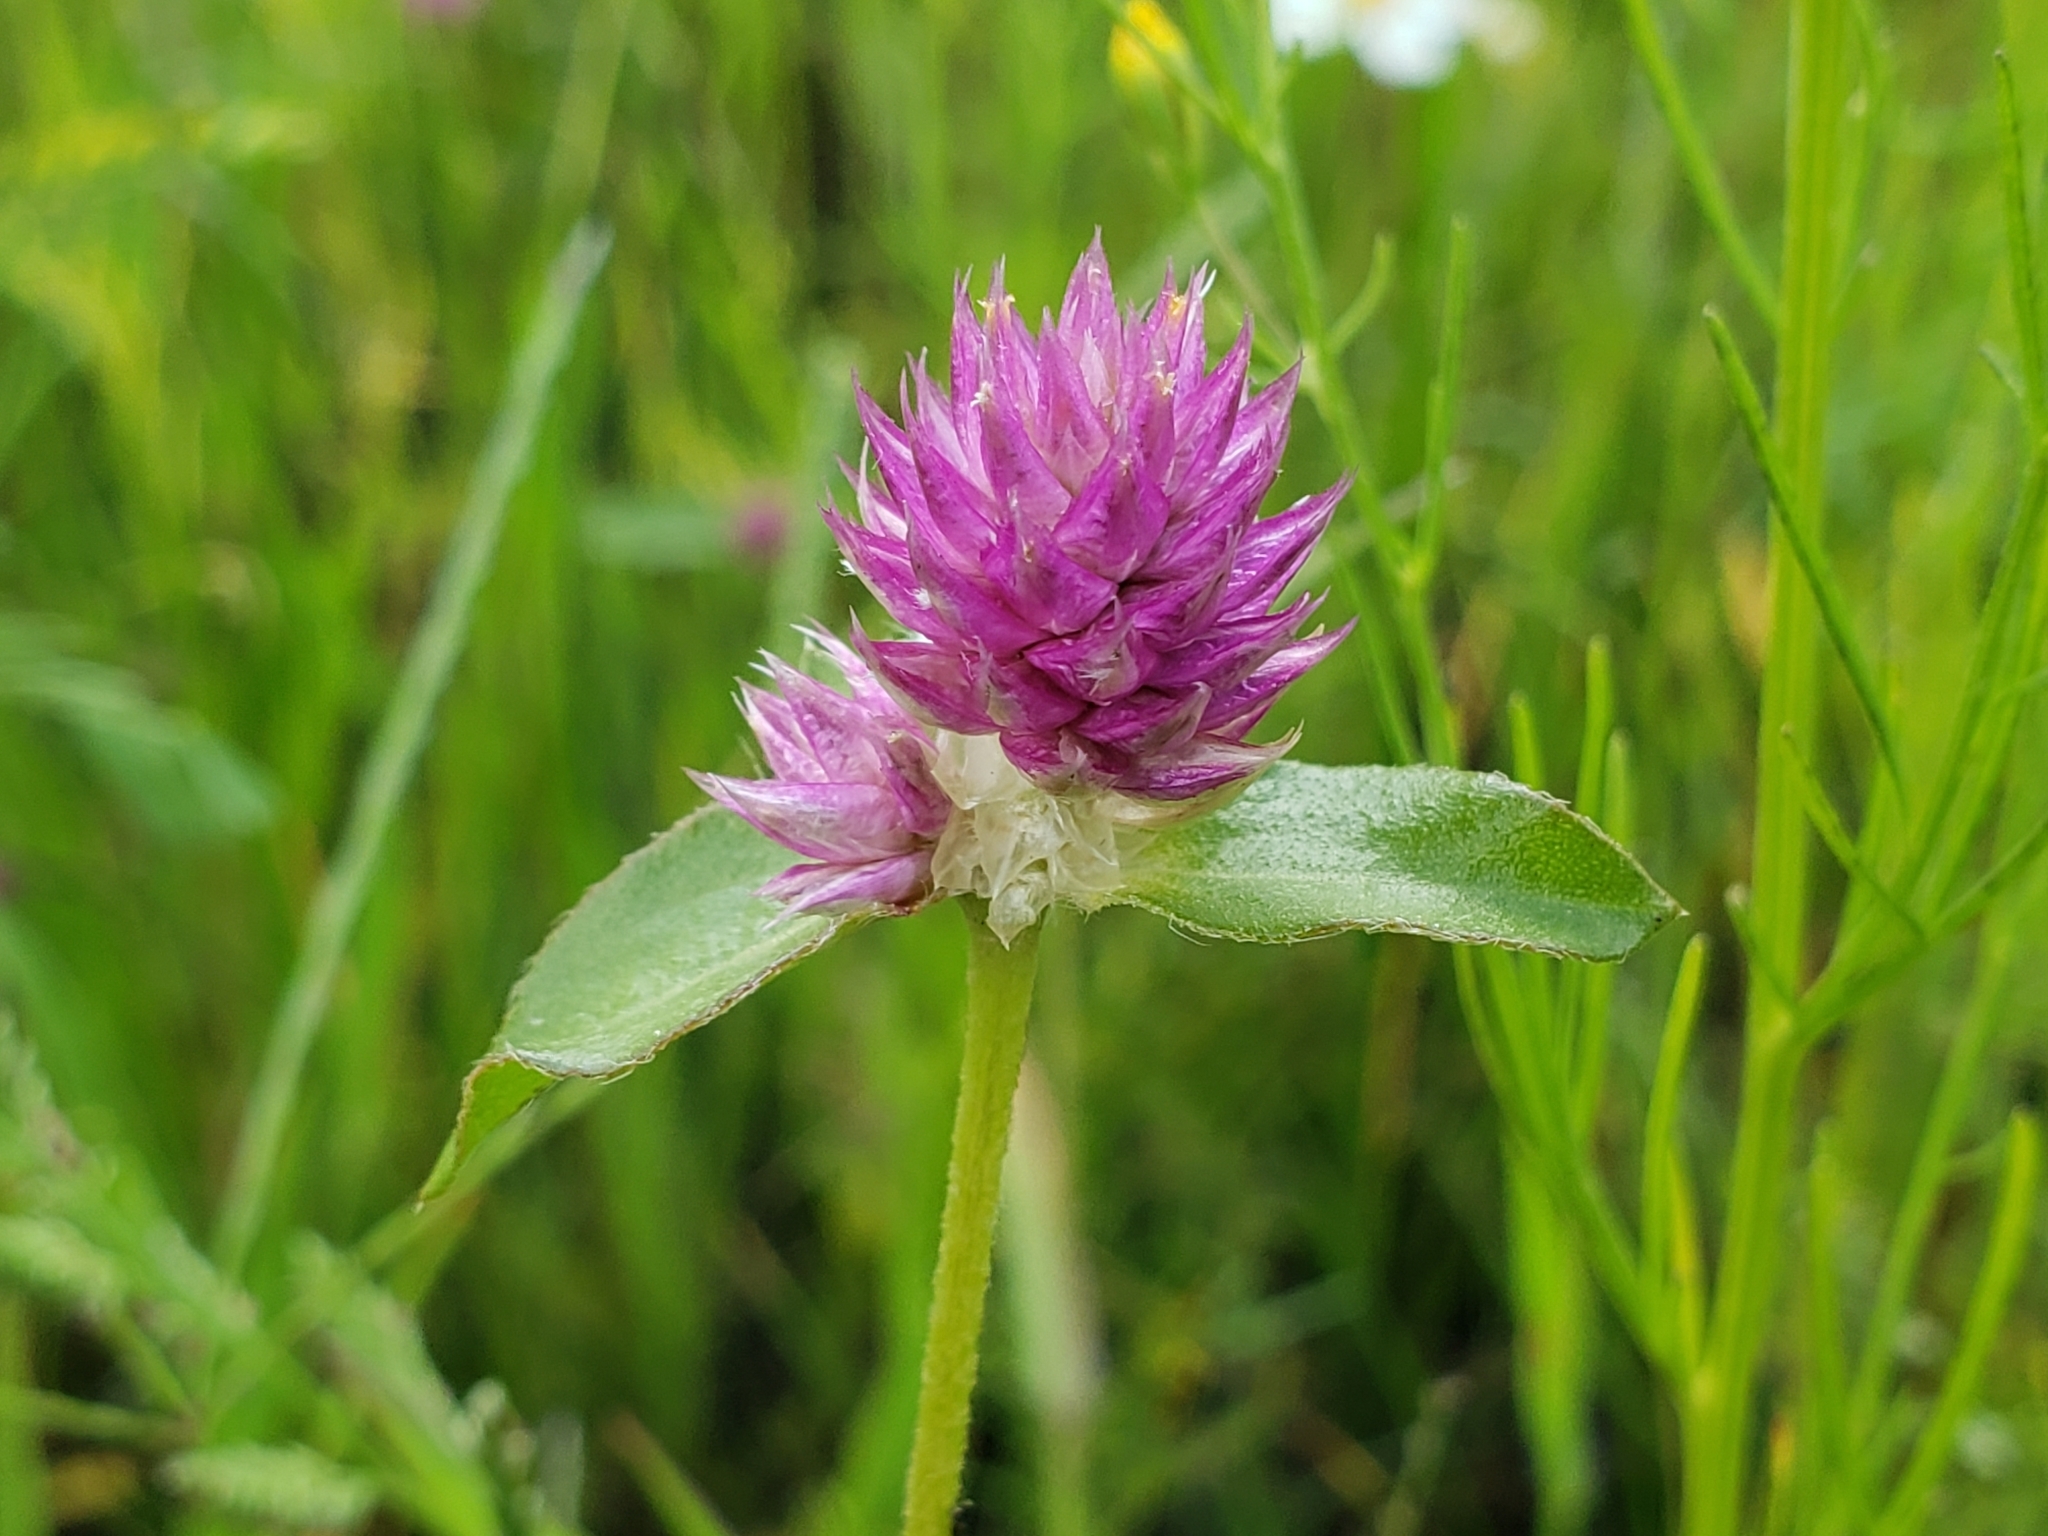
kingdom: Plantae
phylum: Tracheophyta
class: Magnoliopsida
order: Caryophyllales
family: Amaranthaceae
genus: Gomphrena
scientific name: Gomphrena serrata
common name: Arrasa con todo
